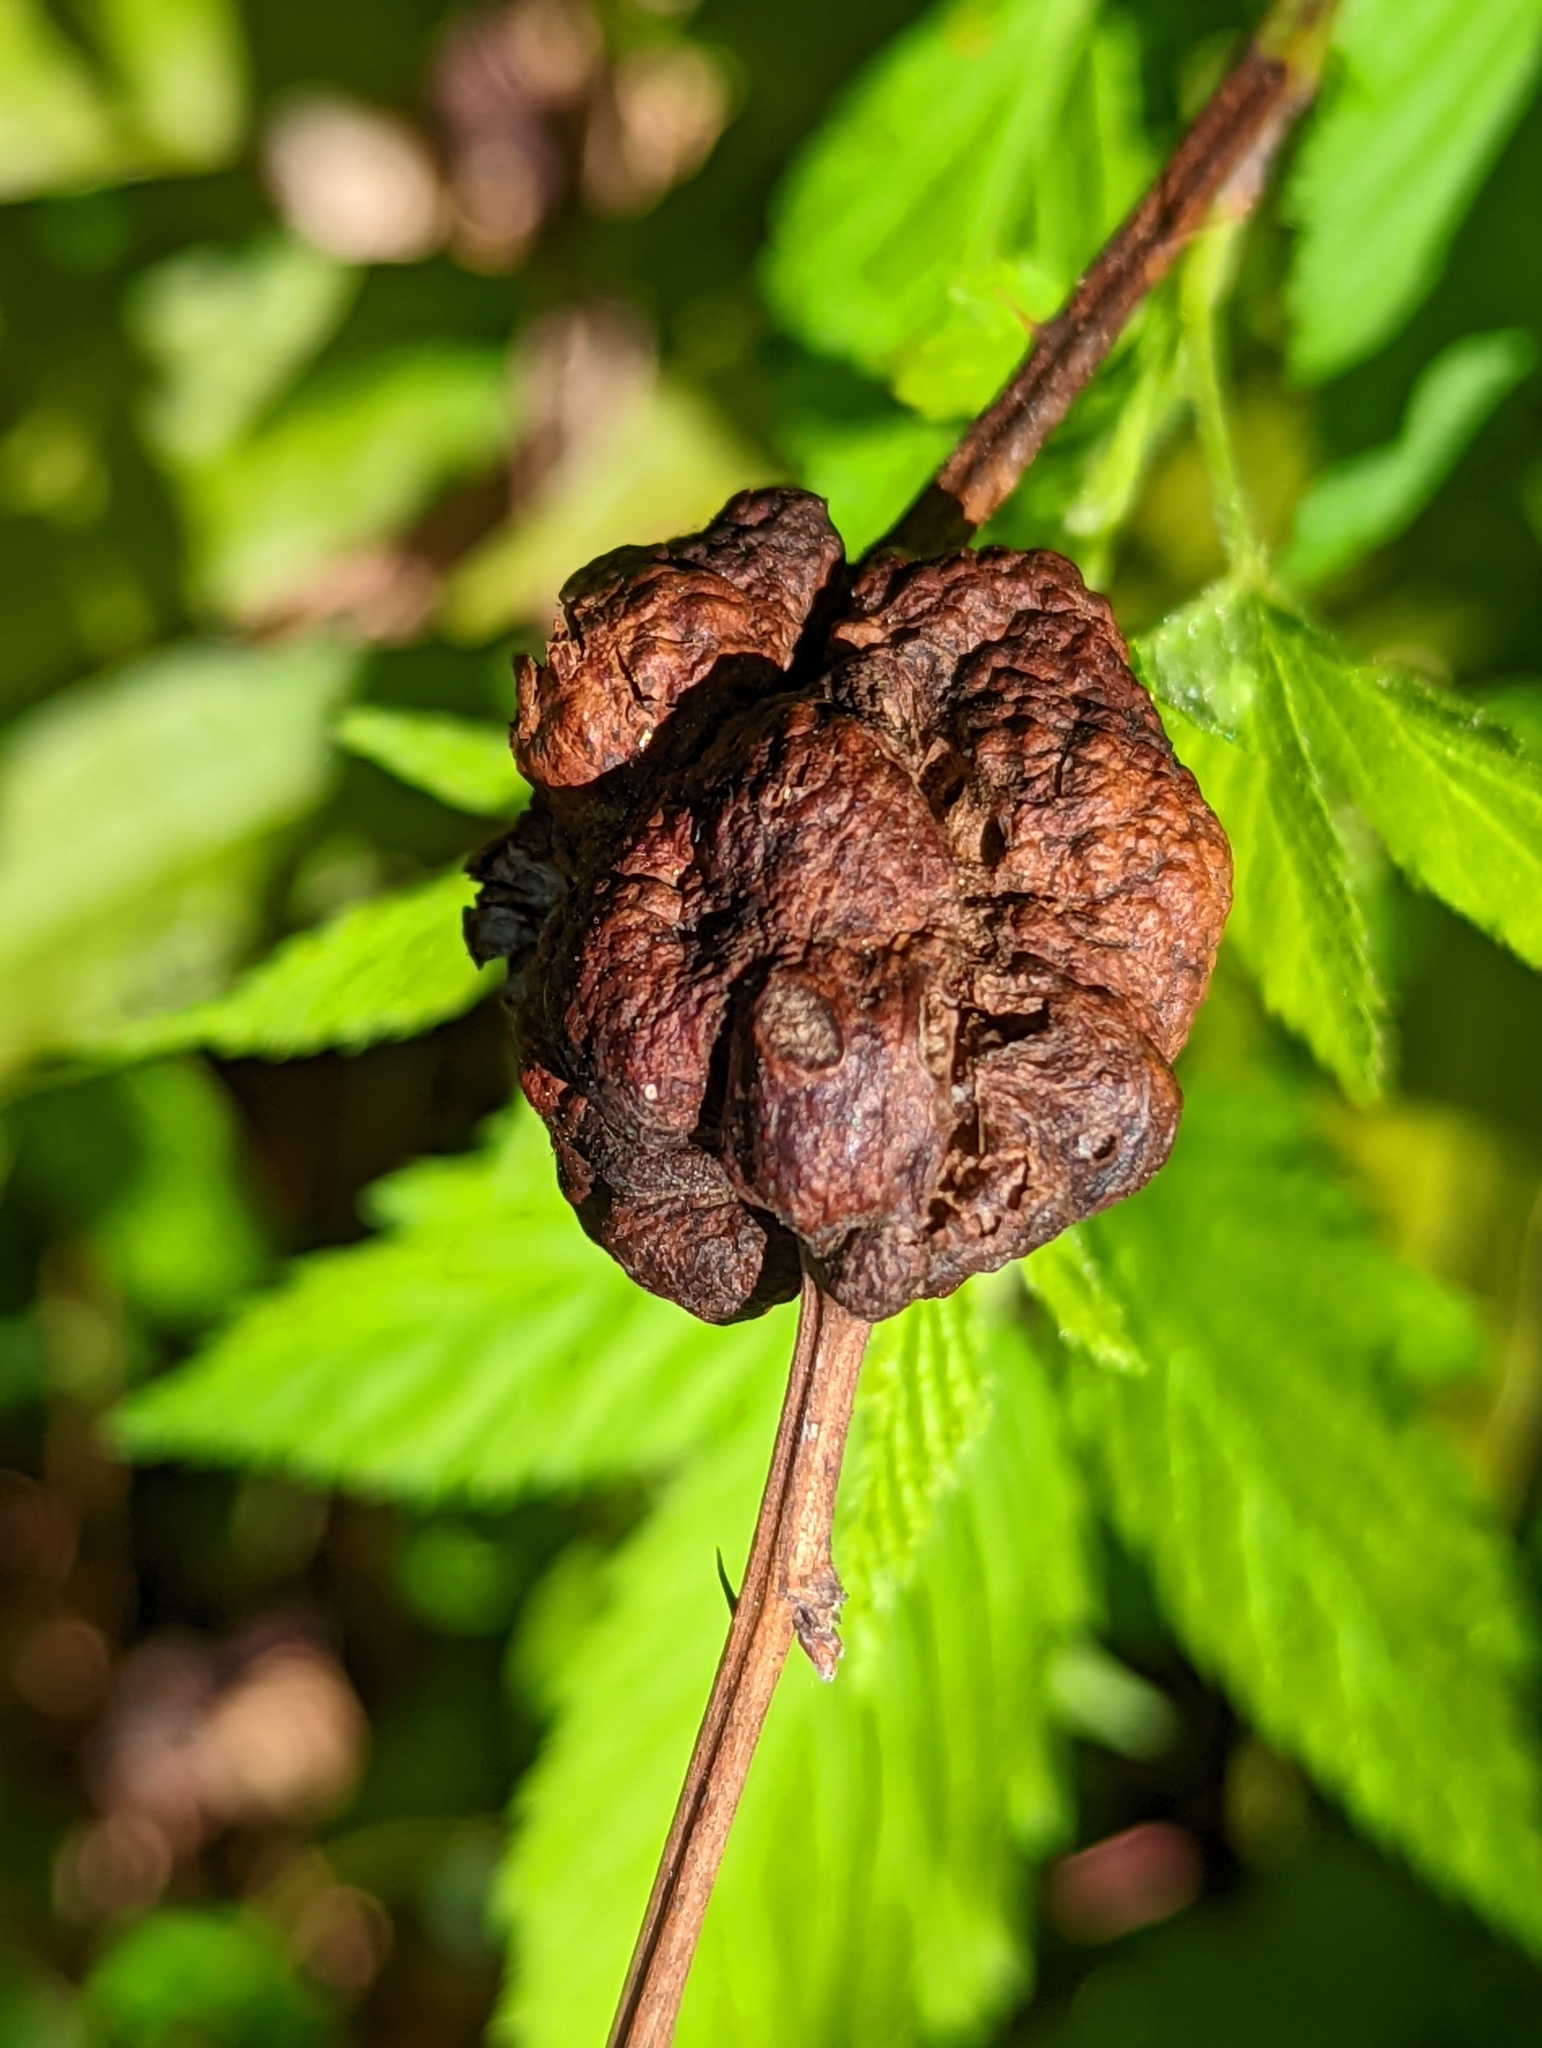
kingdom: Animalia
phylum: Arthropoda
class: Insecta
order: Hymenoptera
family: Cynipidae
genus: Diastrophus
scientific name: Diastrophus
